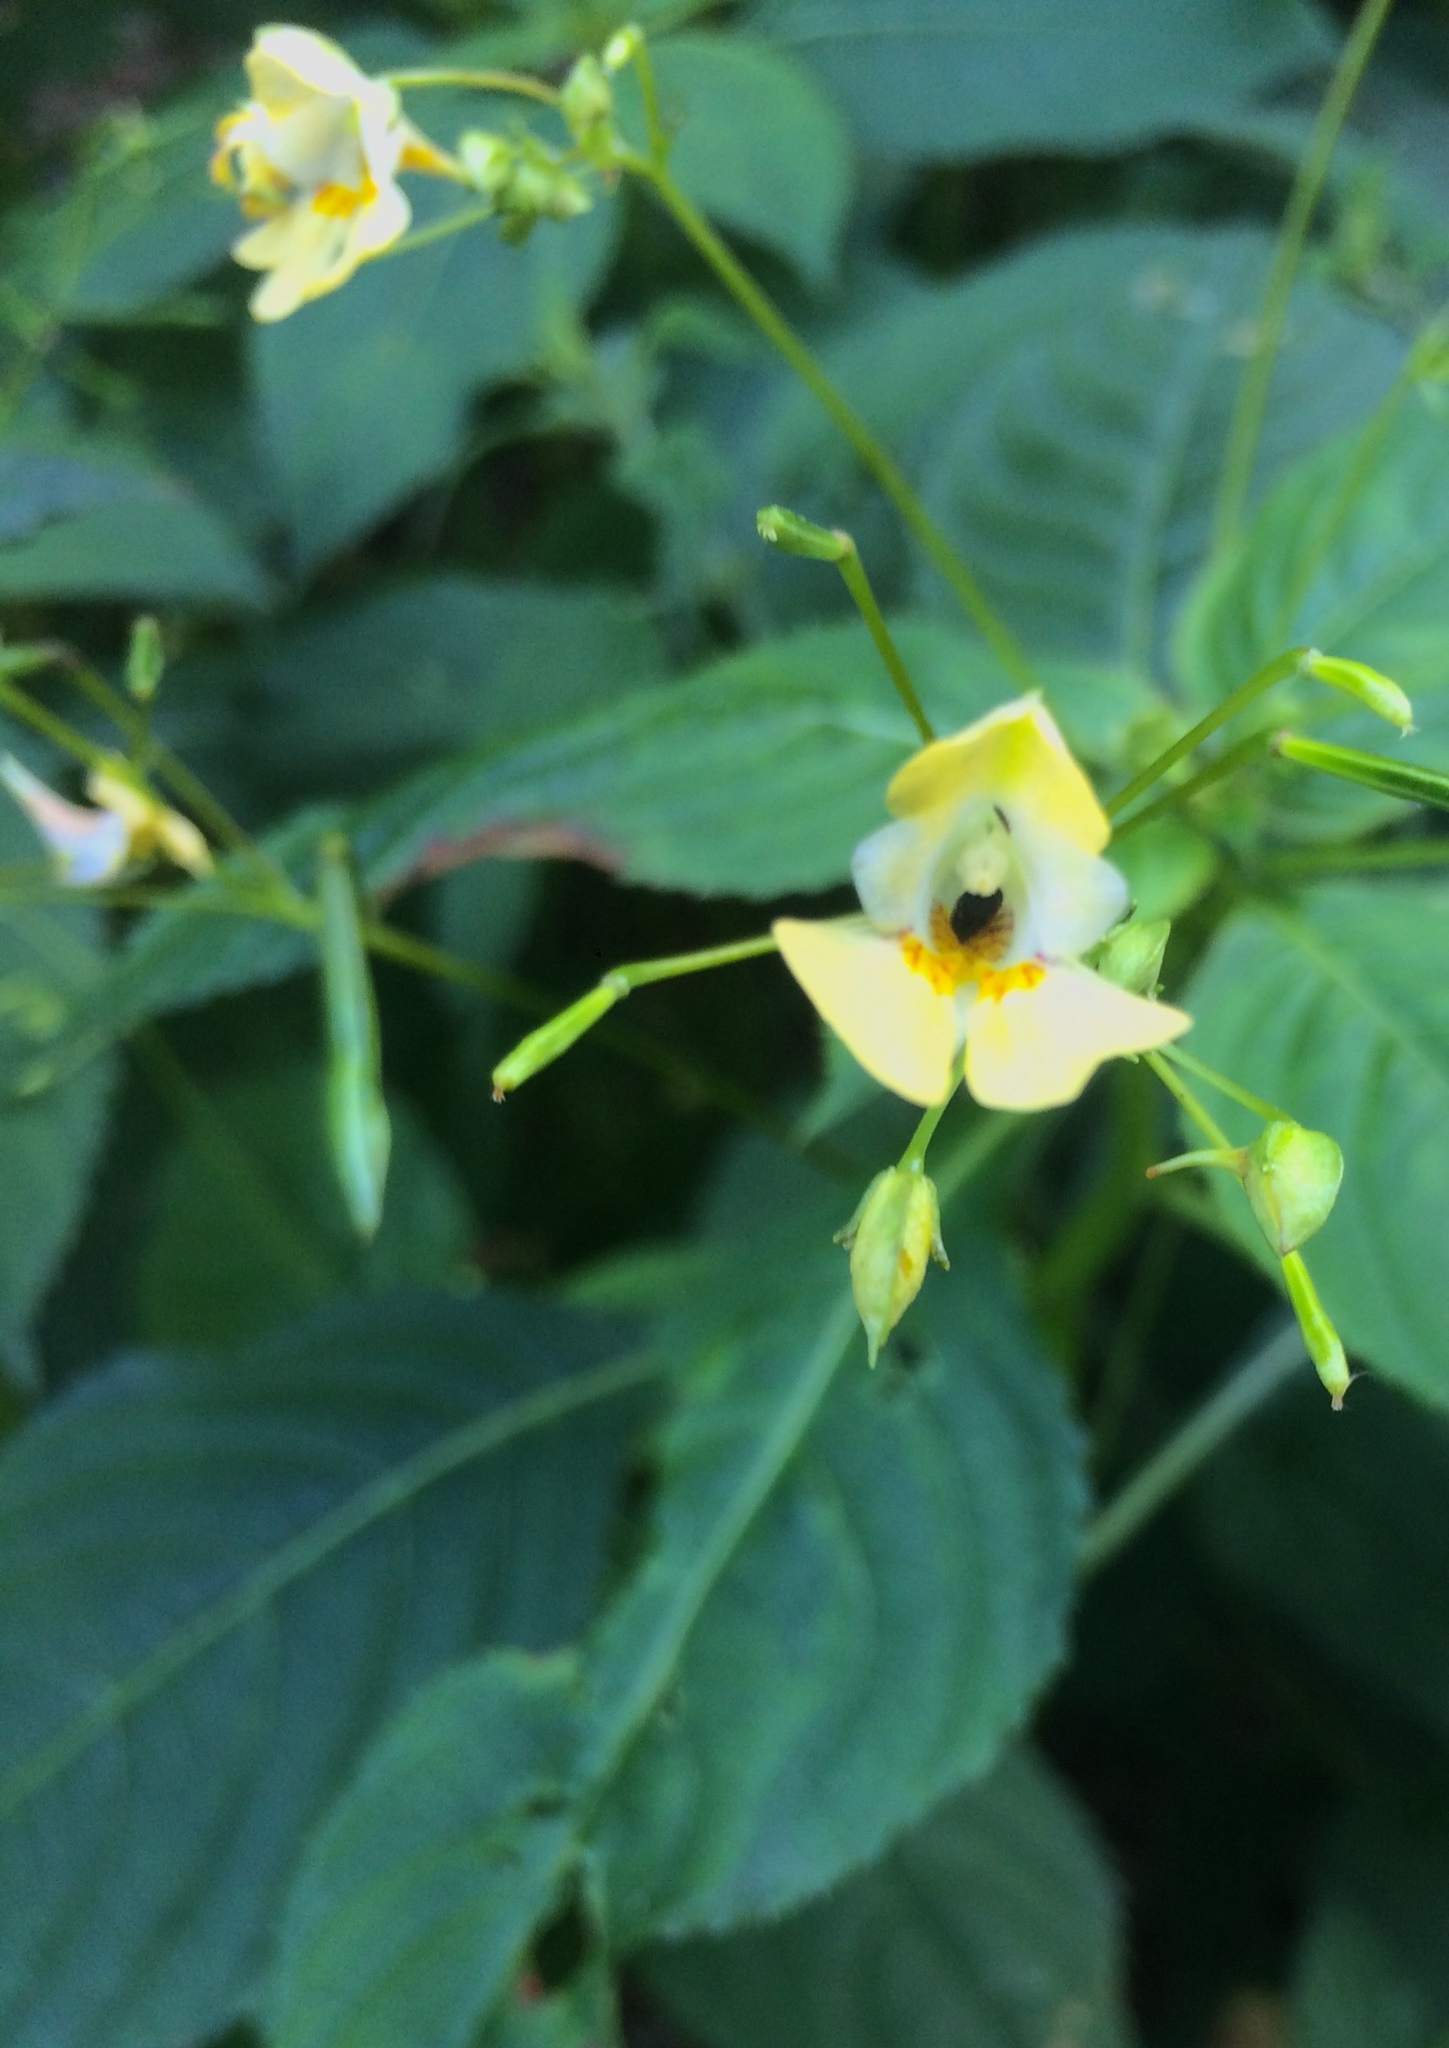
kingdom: Plantae
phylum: Tracheophyta
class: Magnoliopsida
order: Ericales
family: Balsaminaceae
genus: Impatiens
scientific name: Impatiens parviflora
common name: Small balsam
